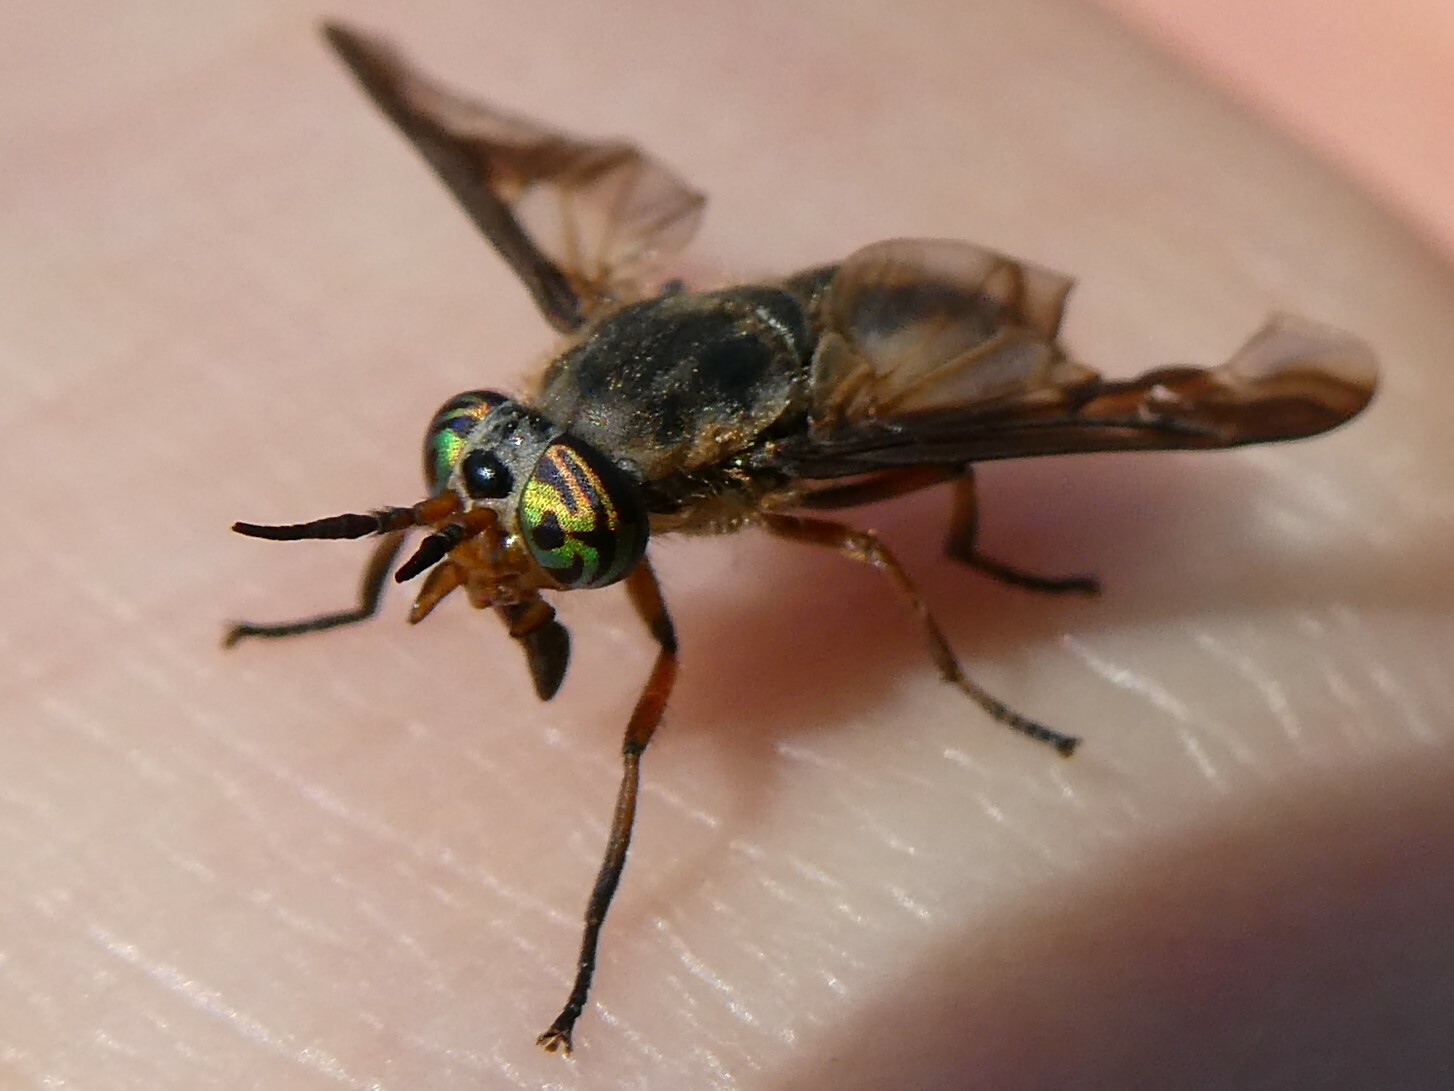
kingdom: Animalia
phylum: Arthropoda
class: Insecta
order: Diptera
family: Tabanidae
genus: Chrysops
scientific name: Chrysops indus
